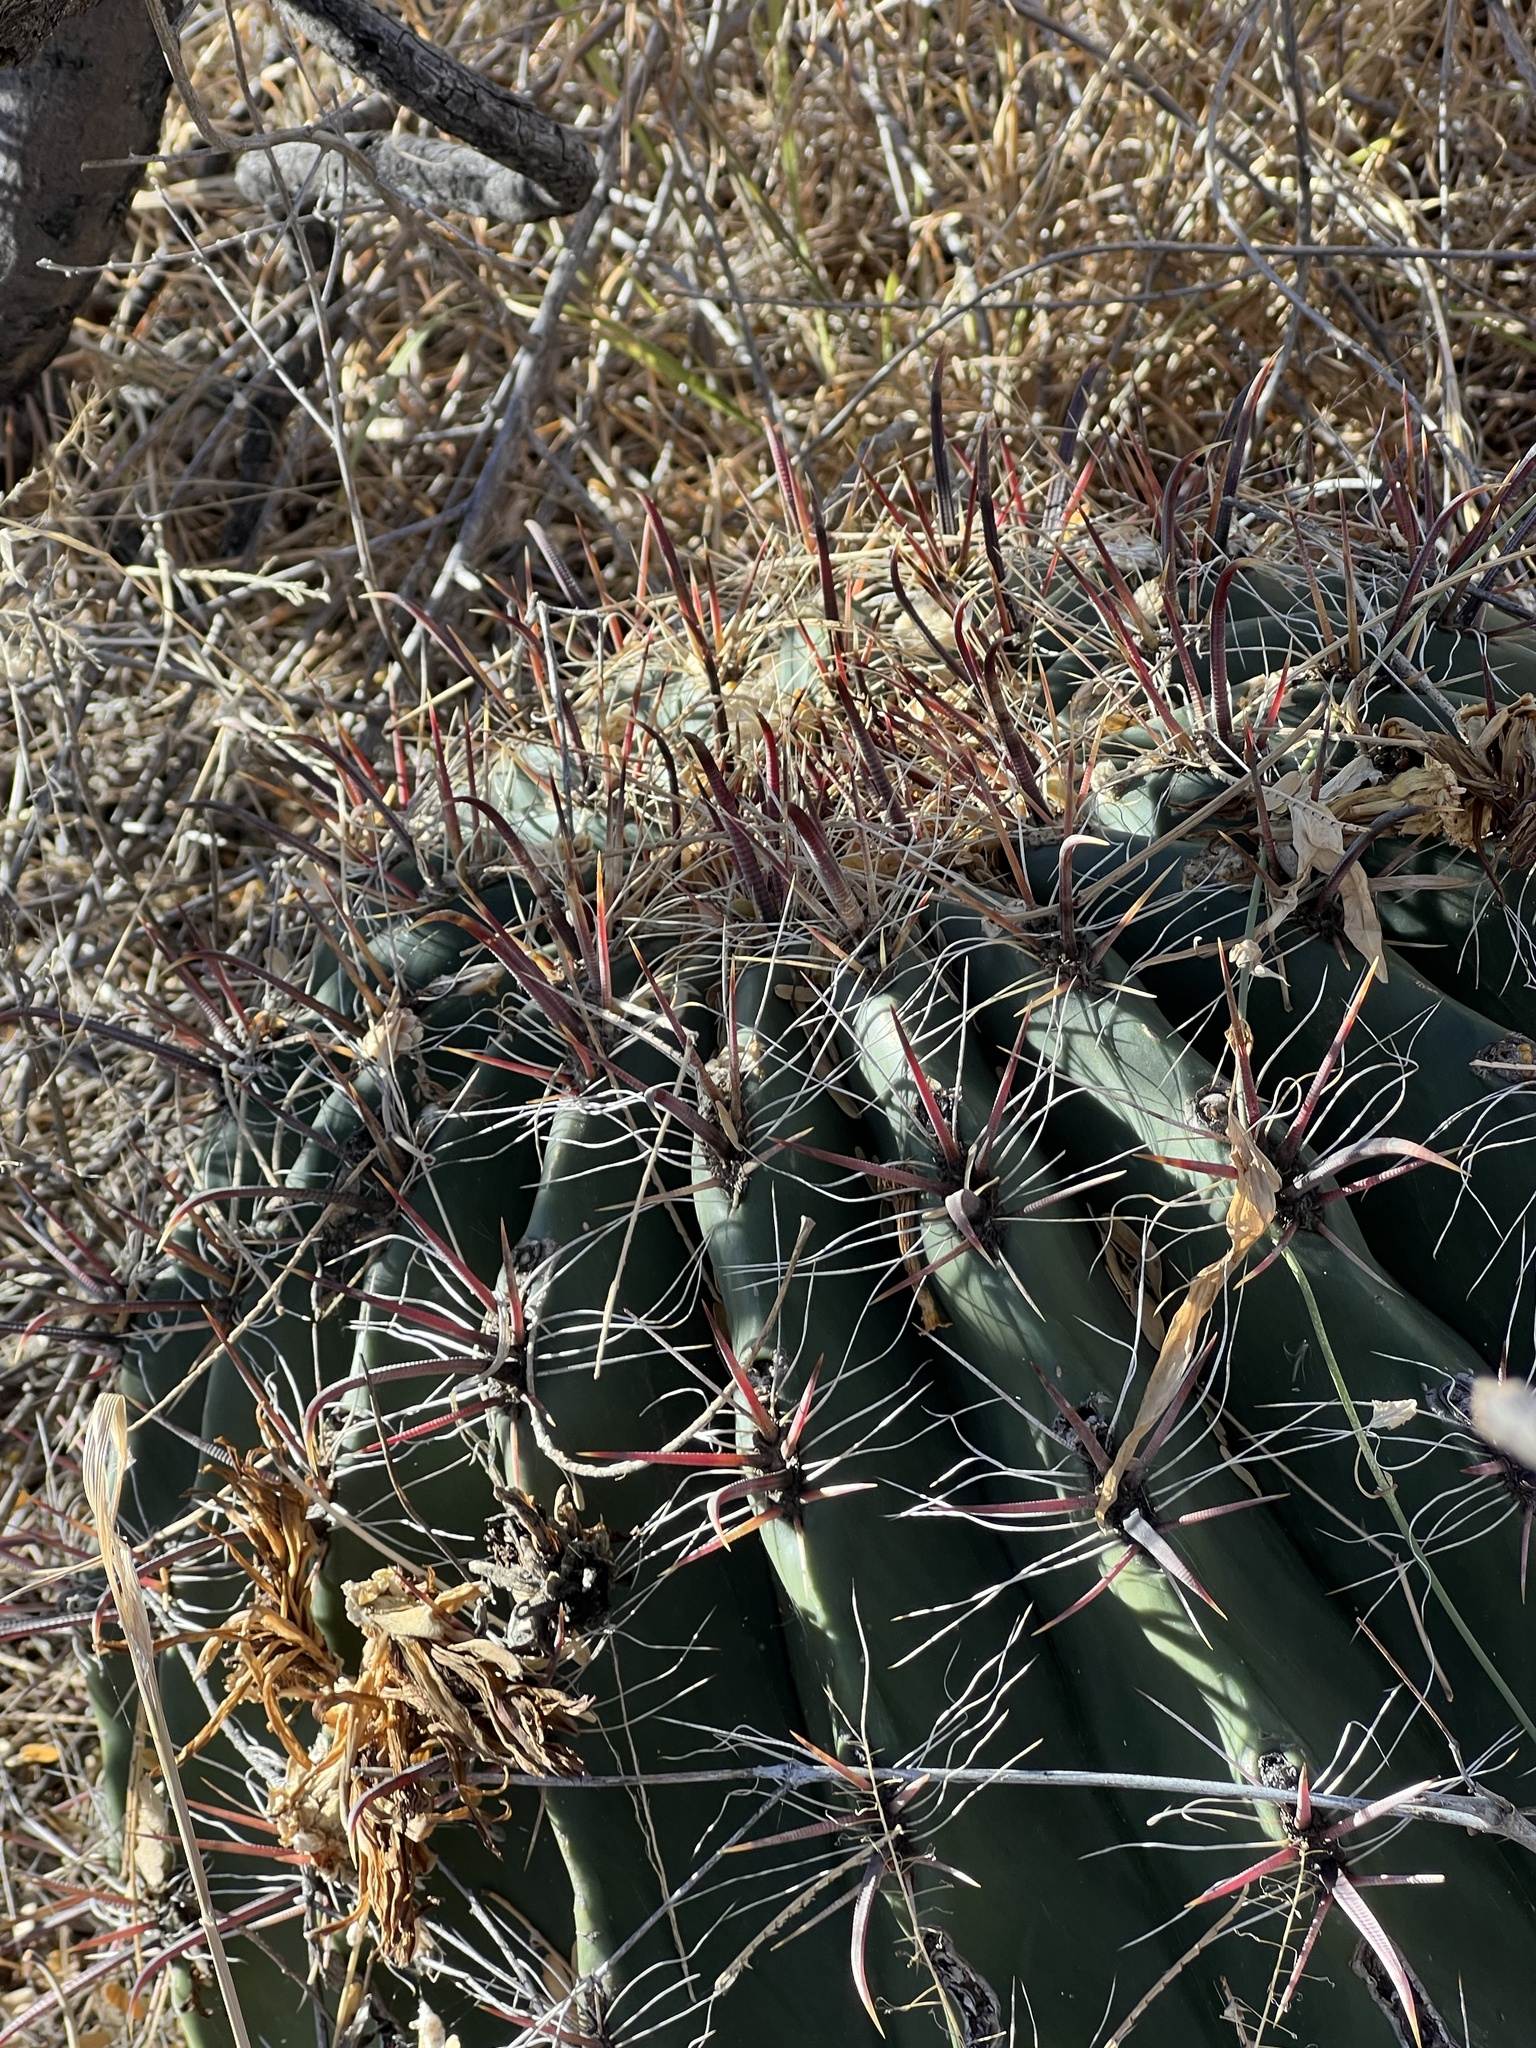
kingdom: Plantae
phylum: Tracheophyta
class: Magnoliopsida
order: Caryophyllales
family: Cactaceae
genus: Ferocactus
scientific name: Ferocactus wislizeni
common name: Candy barrel cactus
